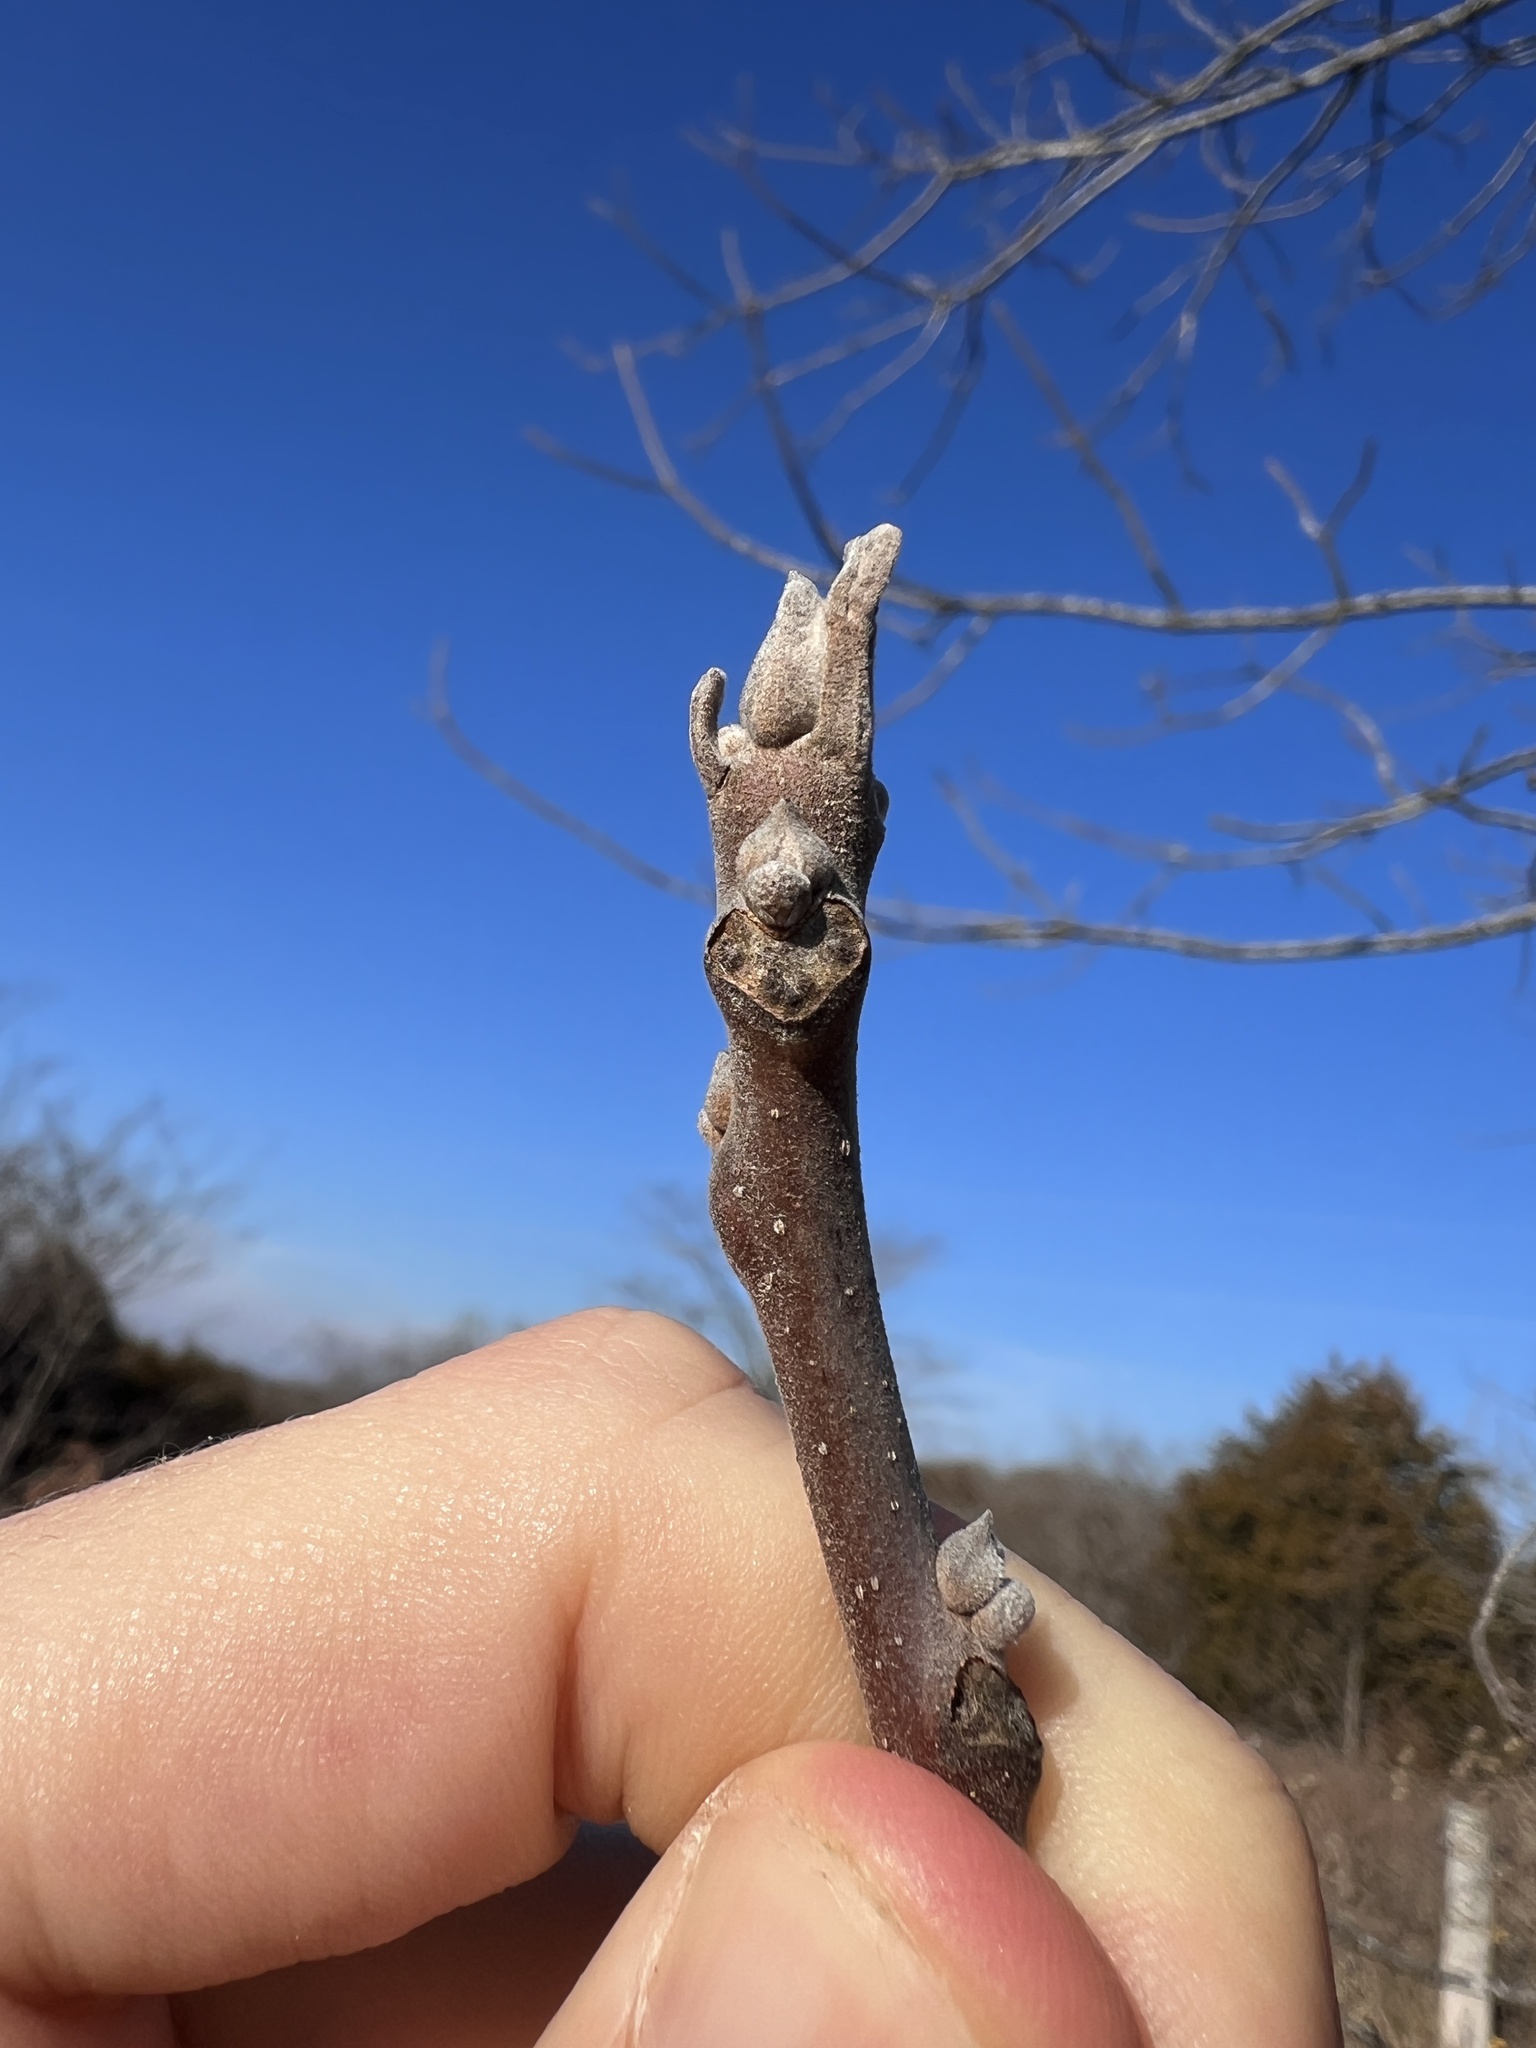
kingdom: Plantae
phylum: Tracheophyta
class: Magnoliopsida
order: Fagales
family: Juglandaceae
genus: Juglans
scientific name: Juglans nigra
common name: Black walnut
